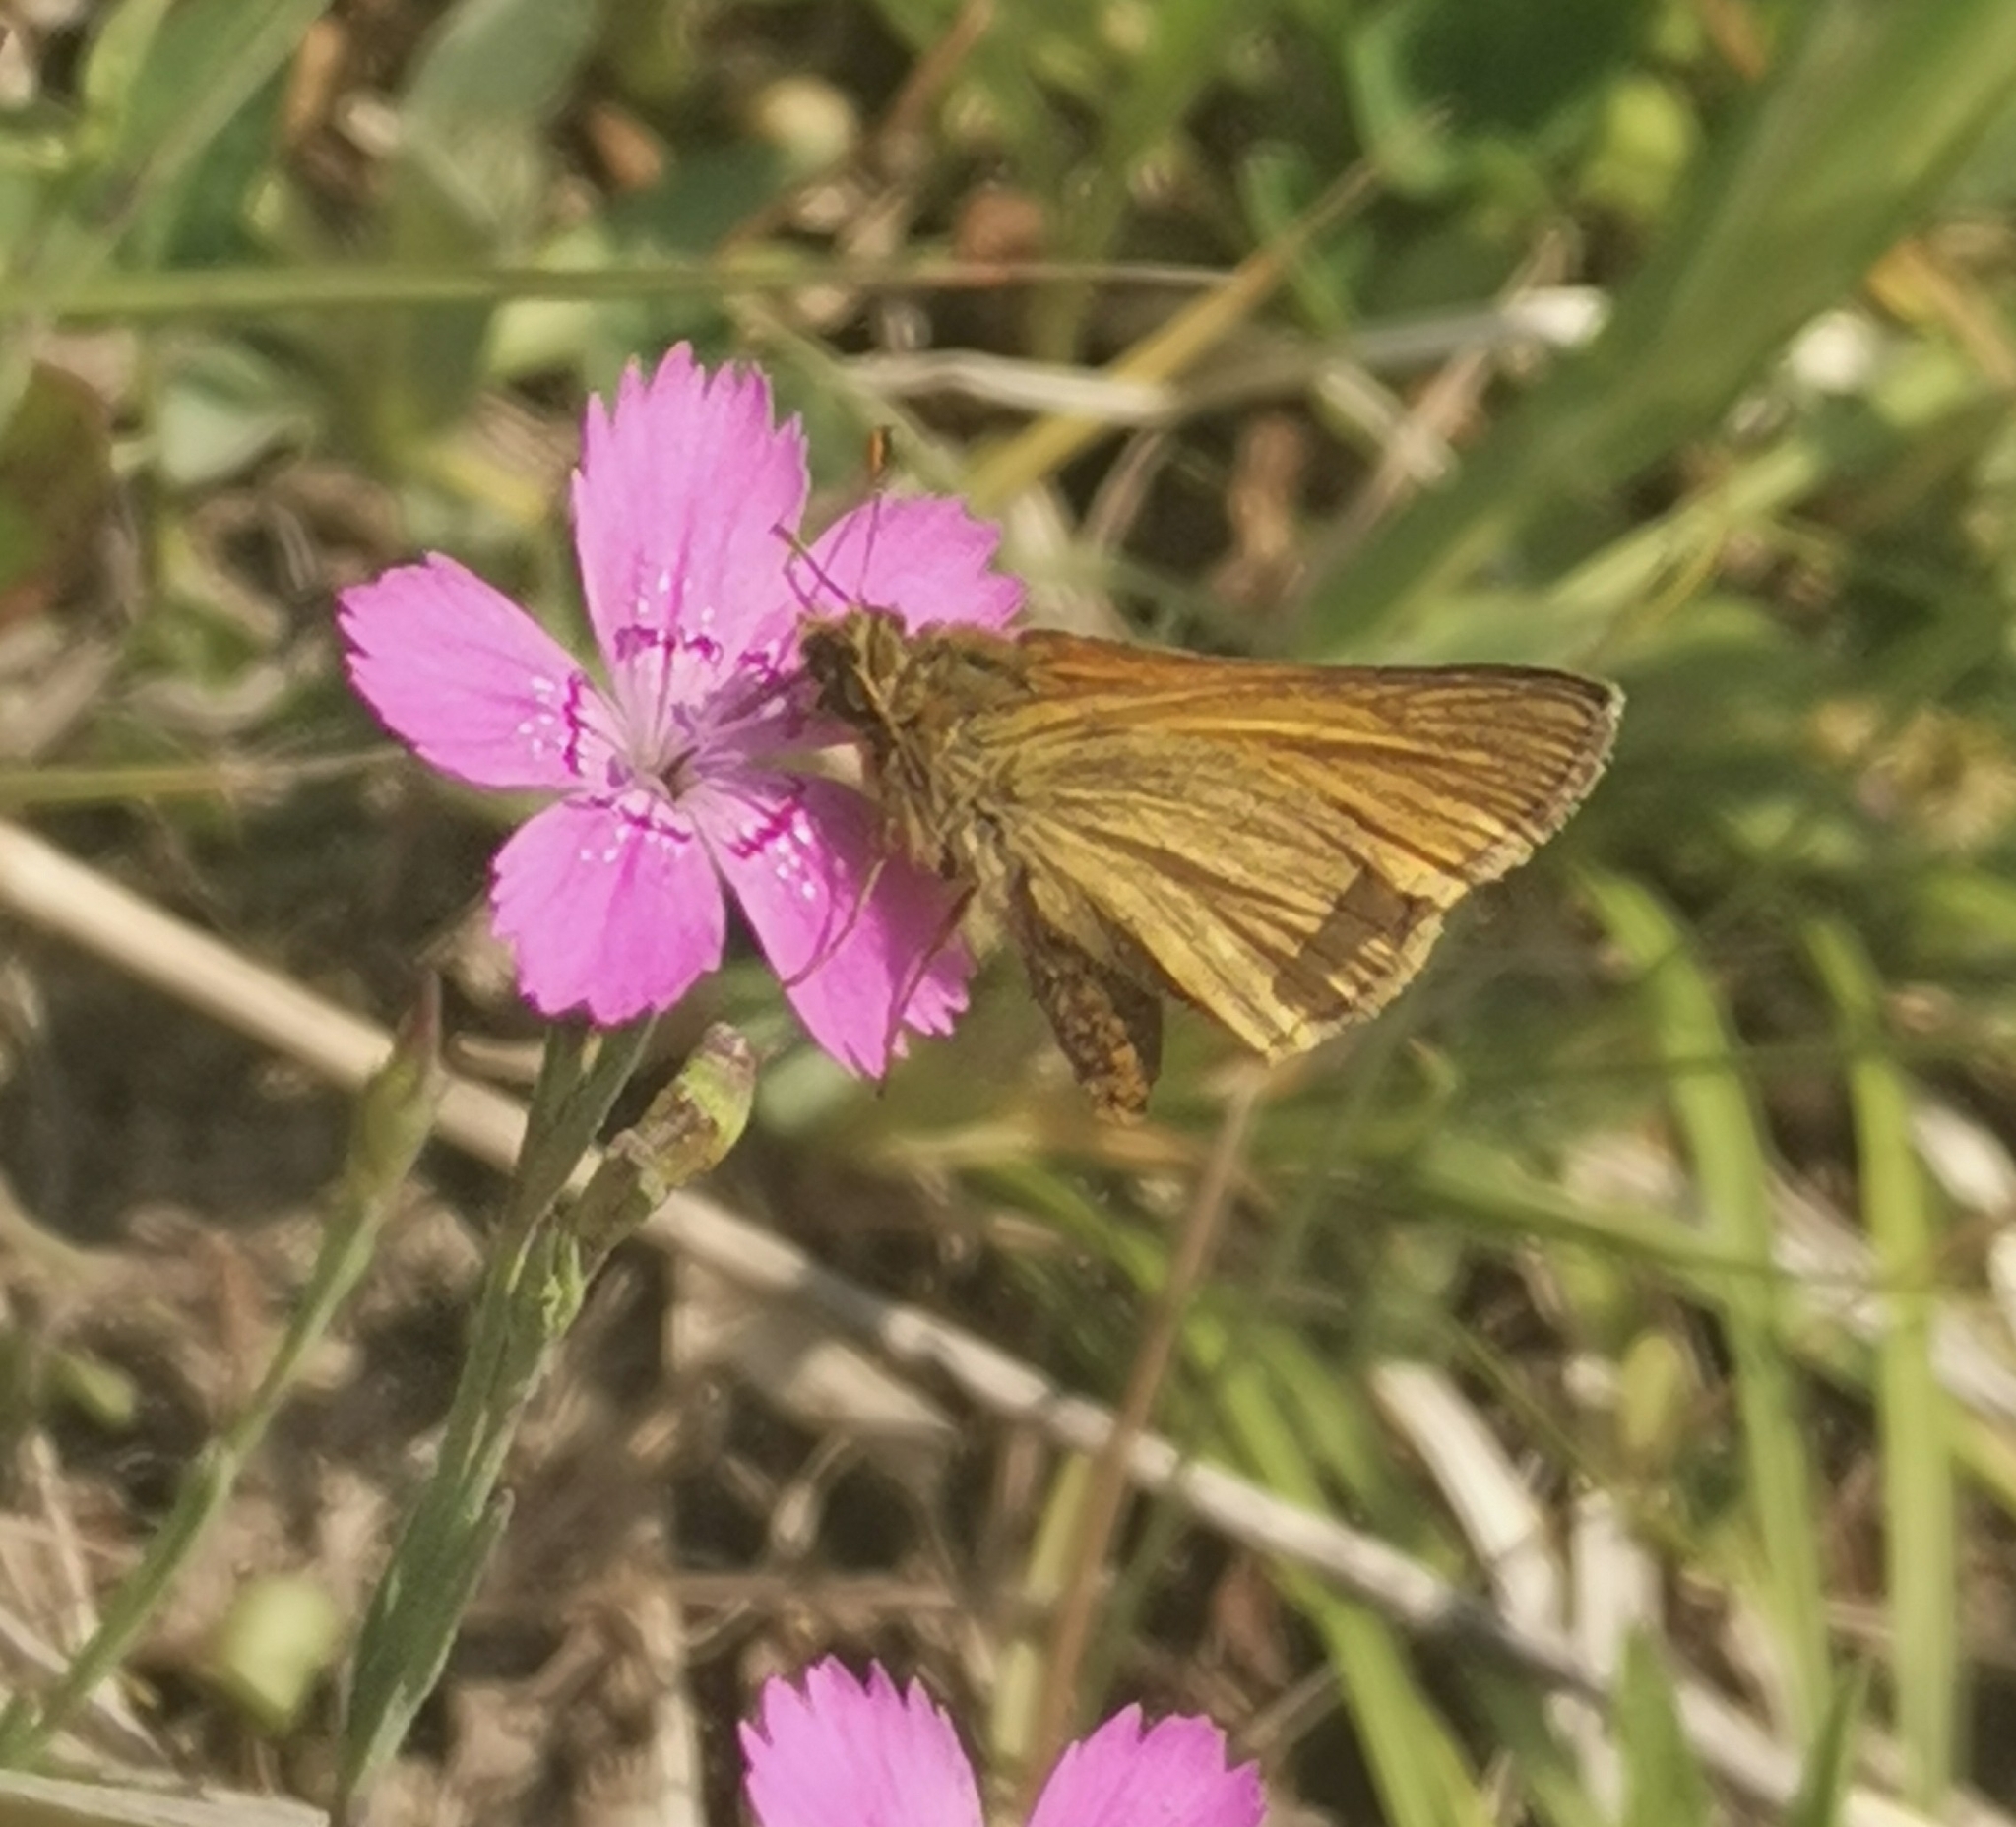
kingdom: Animalia
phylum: Arthropoda
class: Insecta
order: Lepidoptera
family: Hesperiidae
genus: Ochlodes
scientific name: Ochlodes venata
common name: Large skipper
